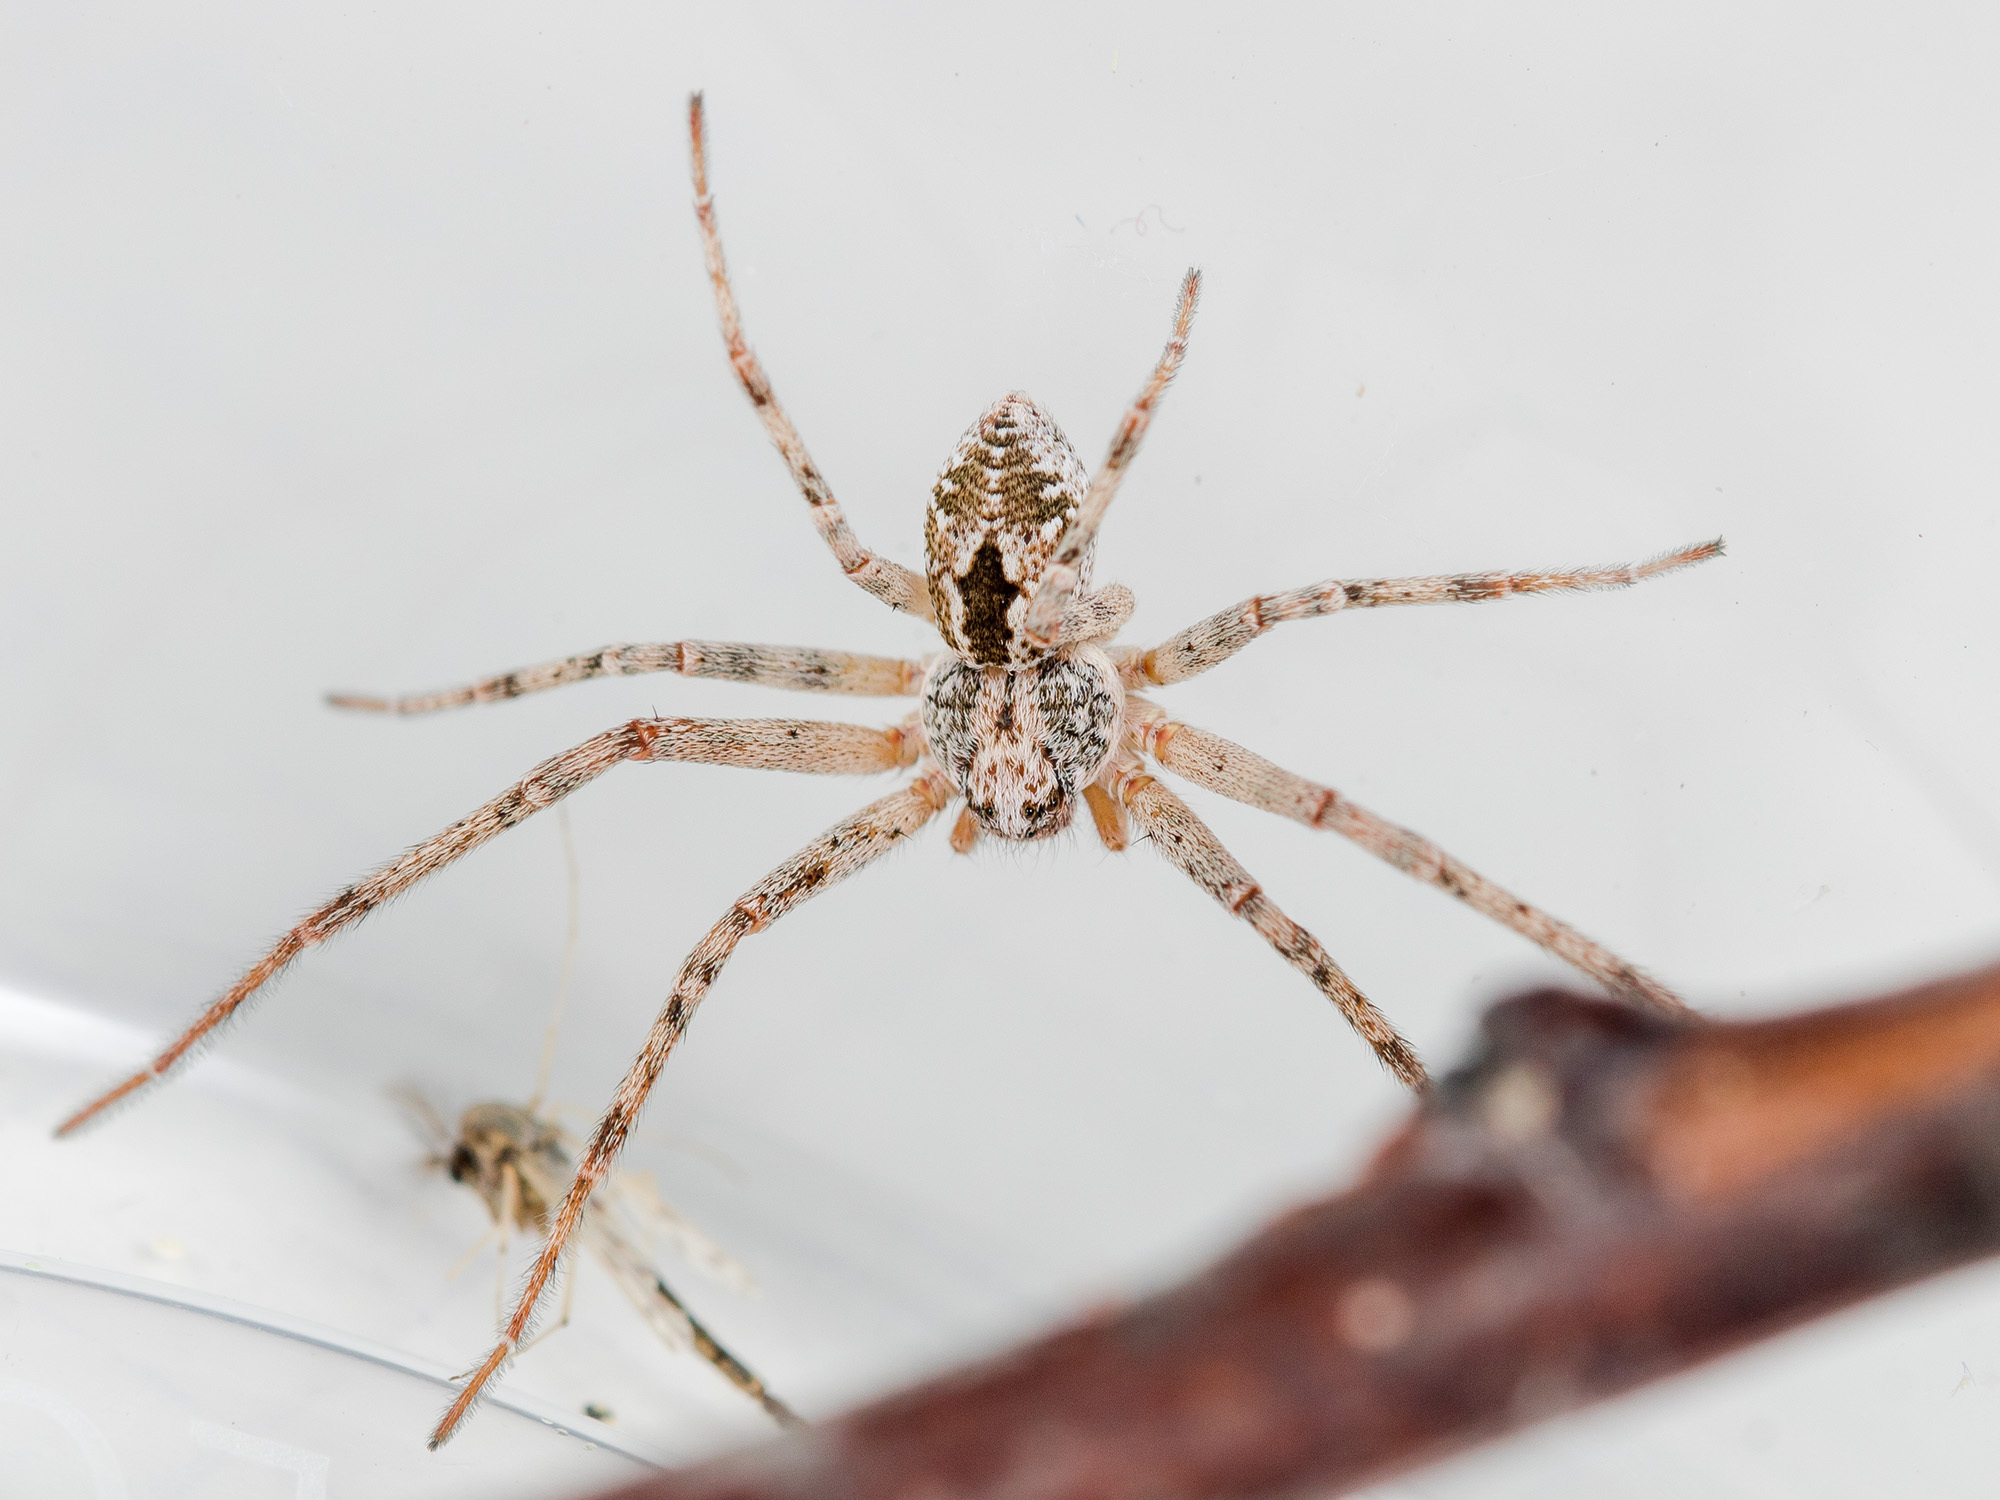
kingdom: Animalia
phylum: Arthropoda
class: Arachnida
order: Araneae
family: Philodromidae
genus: Rhysodromus
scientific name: Rhysodromus fallax
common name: Sand running-spider
